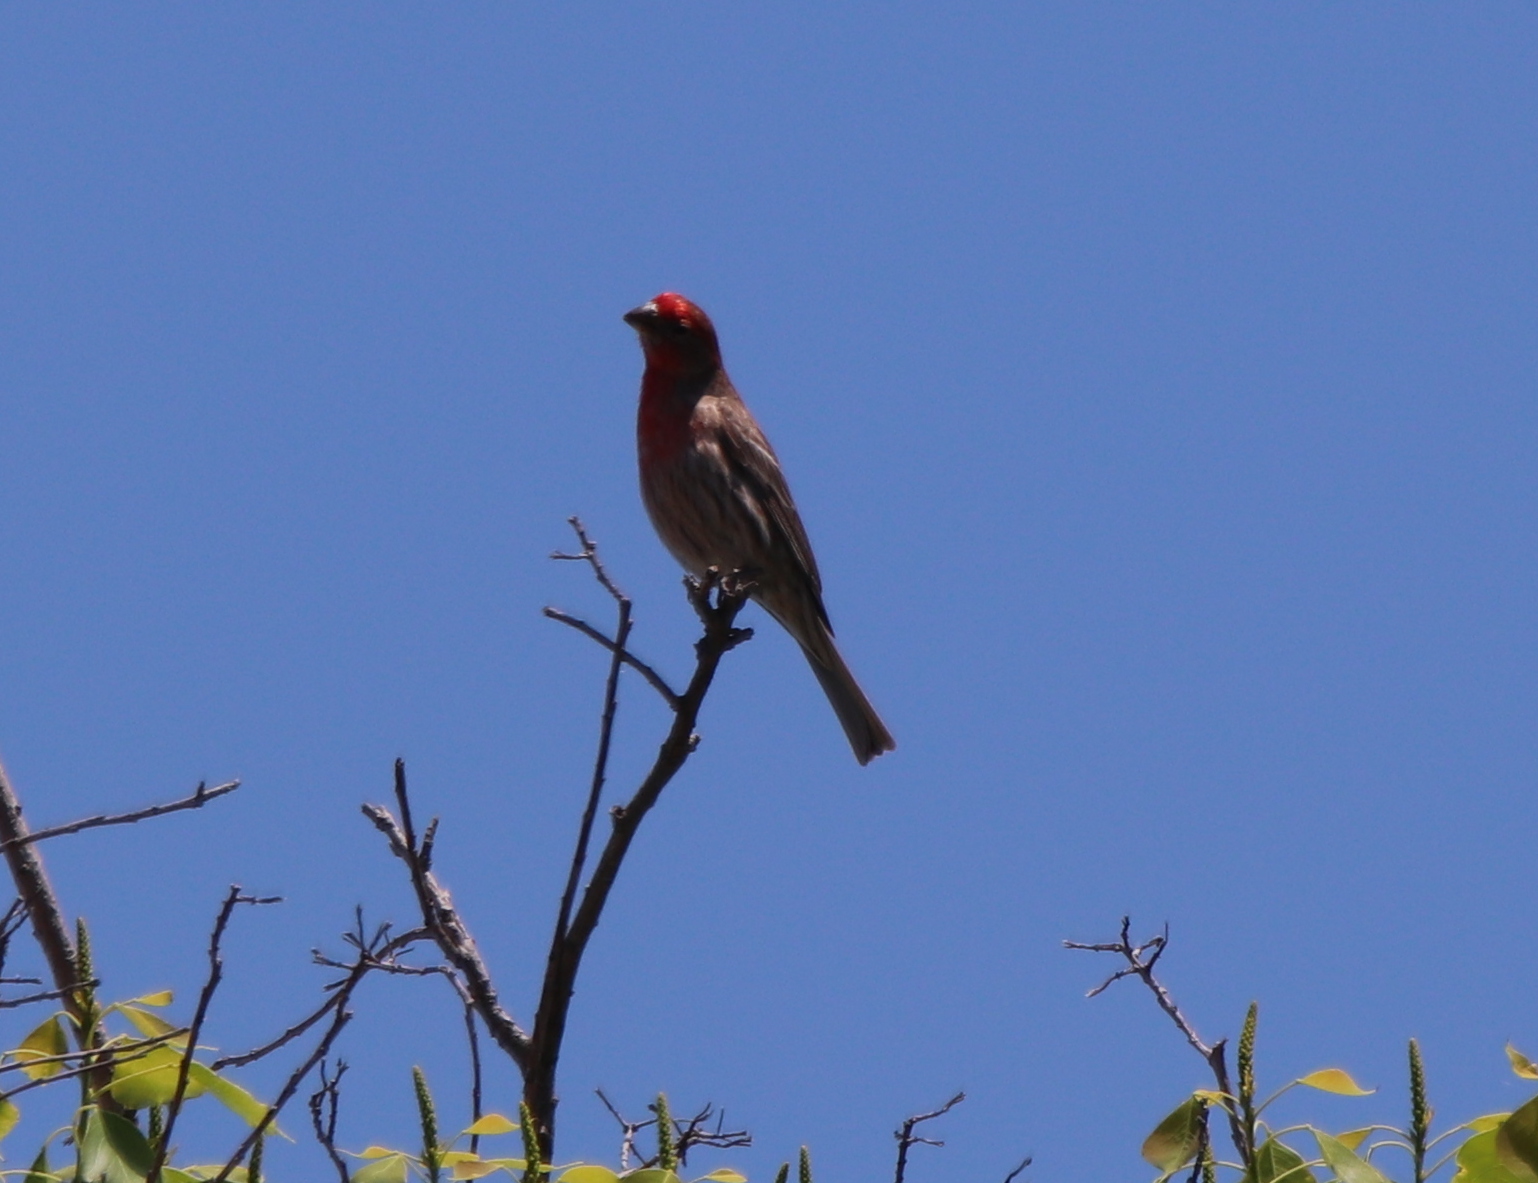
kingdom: Animalia
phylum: Chordata
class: Aves
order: Passeriformes
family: Fringillidae
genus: Haemorhous
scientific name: Haemorhous mexicanus
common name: House finch
